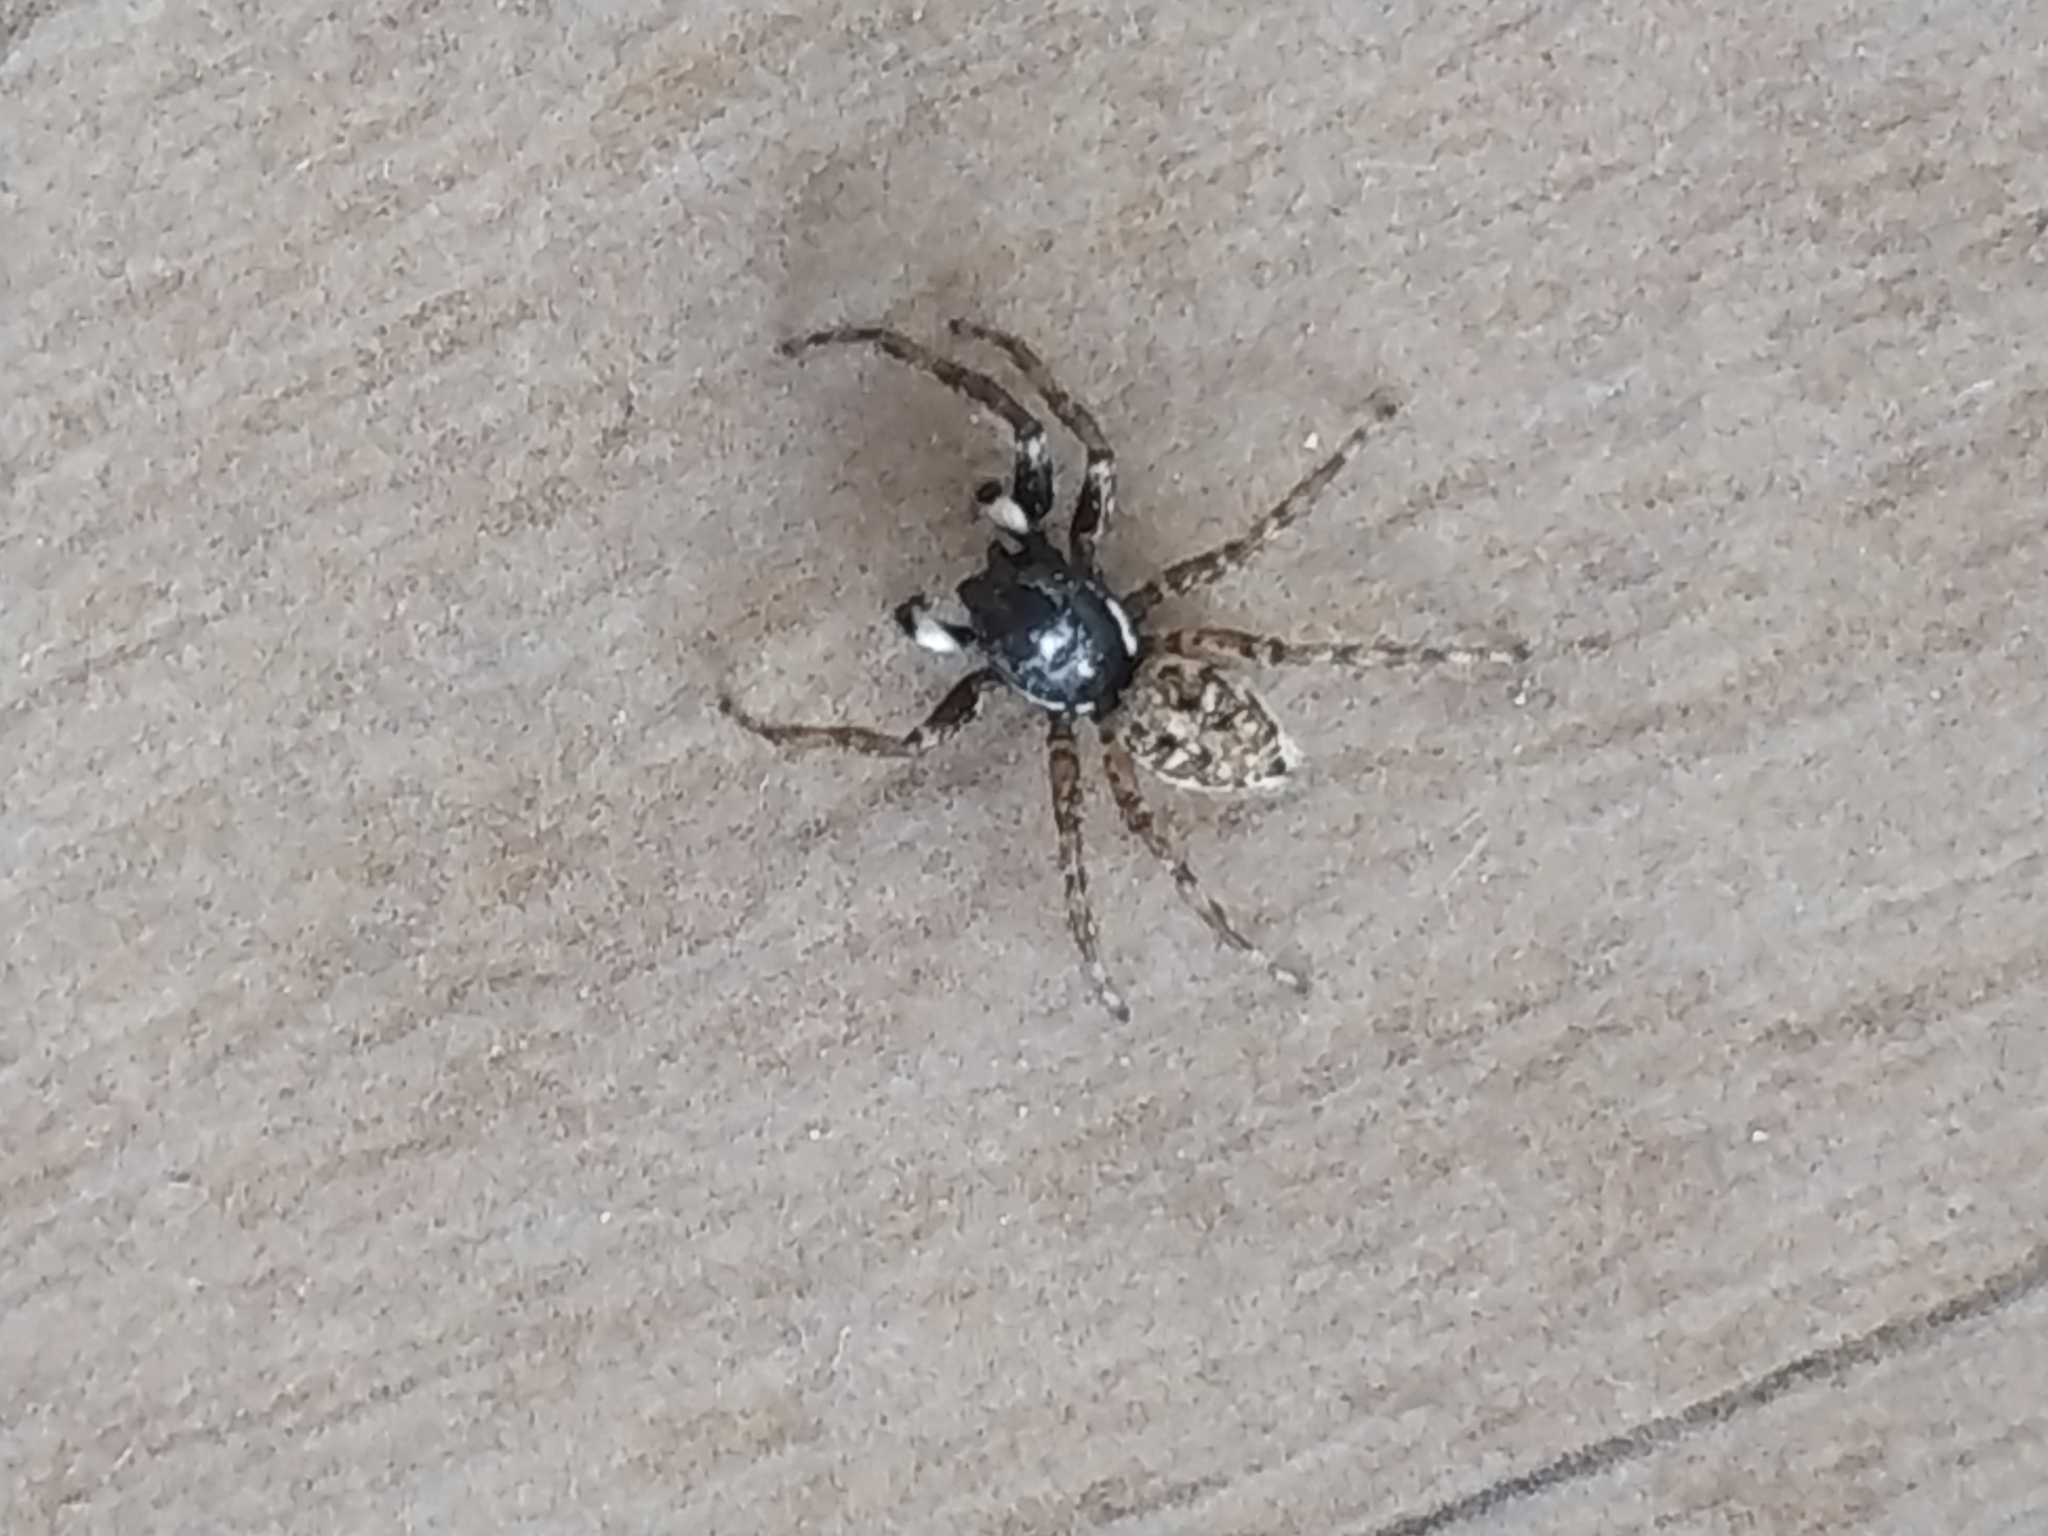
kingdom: Animalia
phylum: Arthropoda
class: Arachnida
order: Araneae
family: Salticidae
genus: Menemerus
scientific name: Menemerus semilimbatus
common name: Jumping spider
